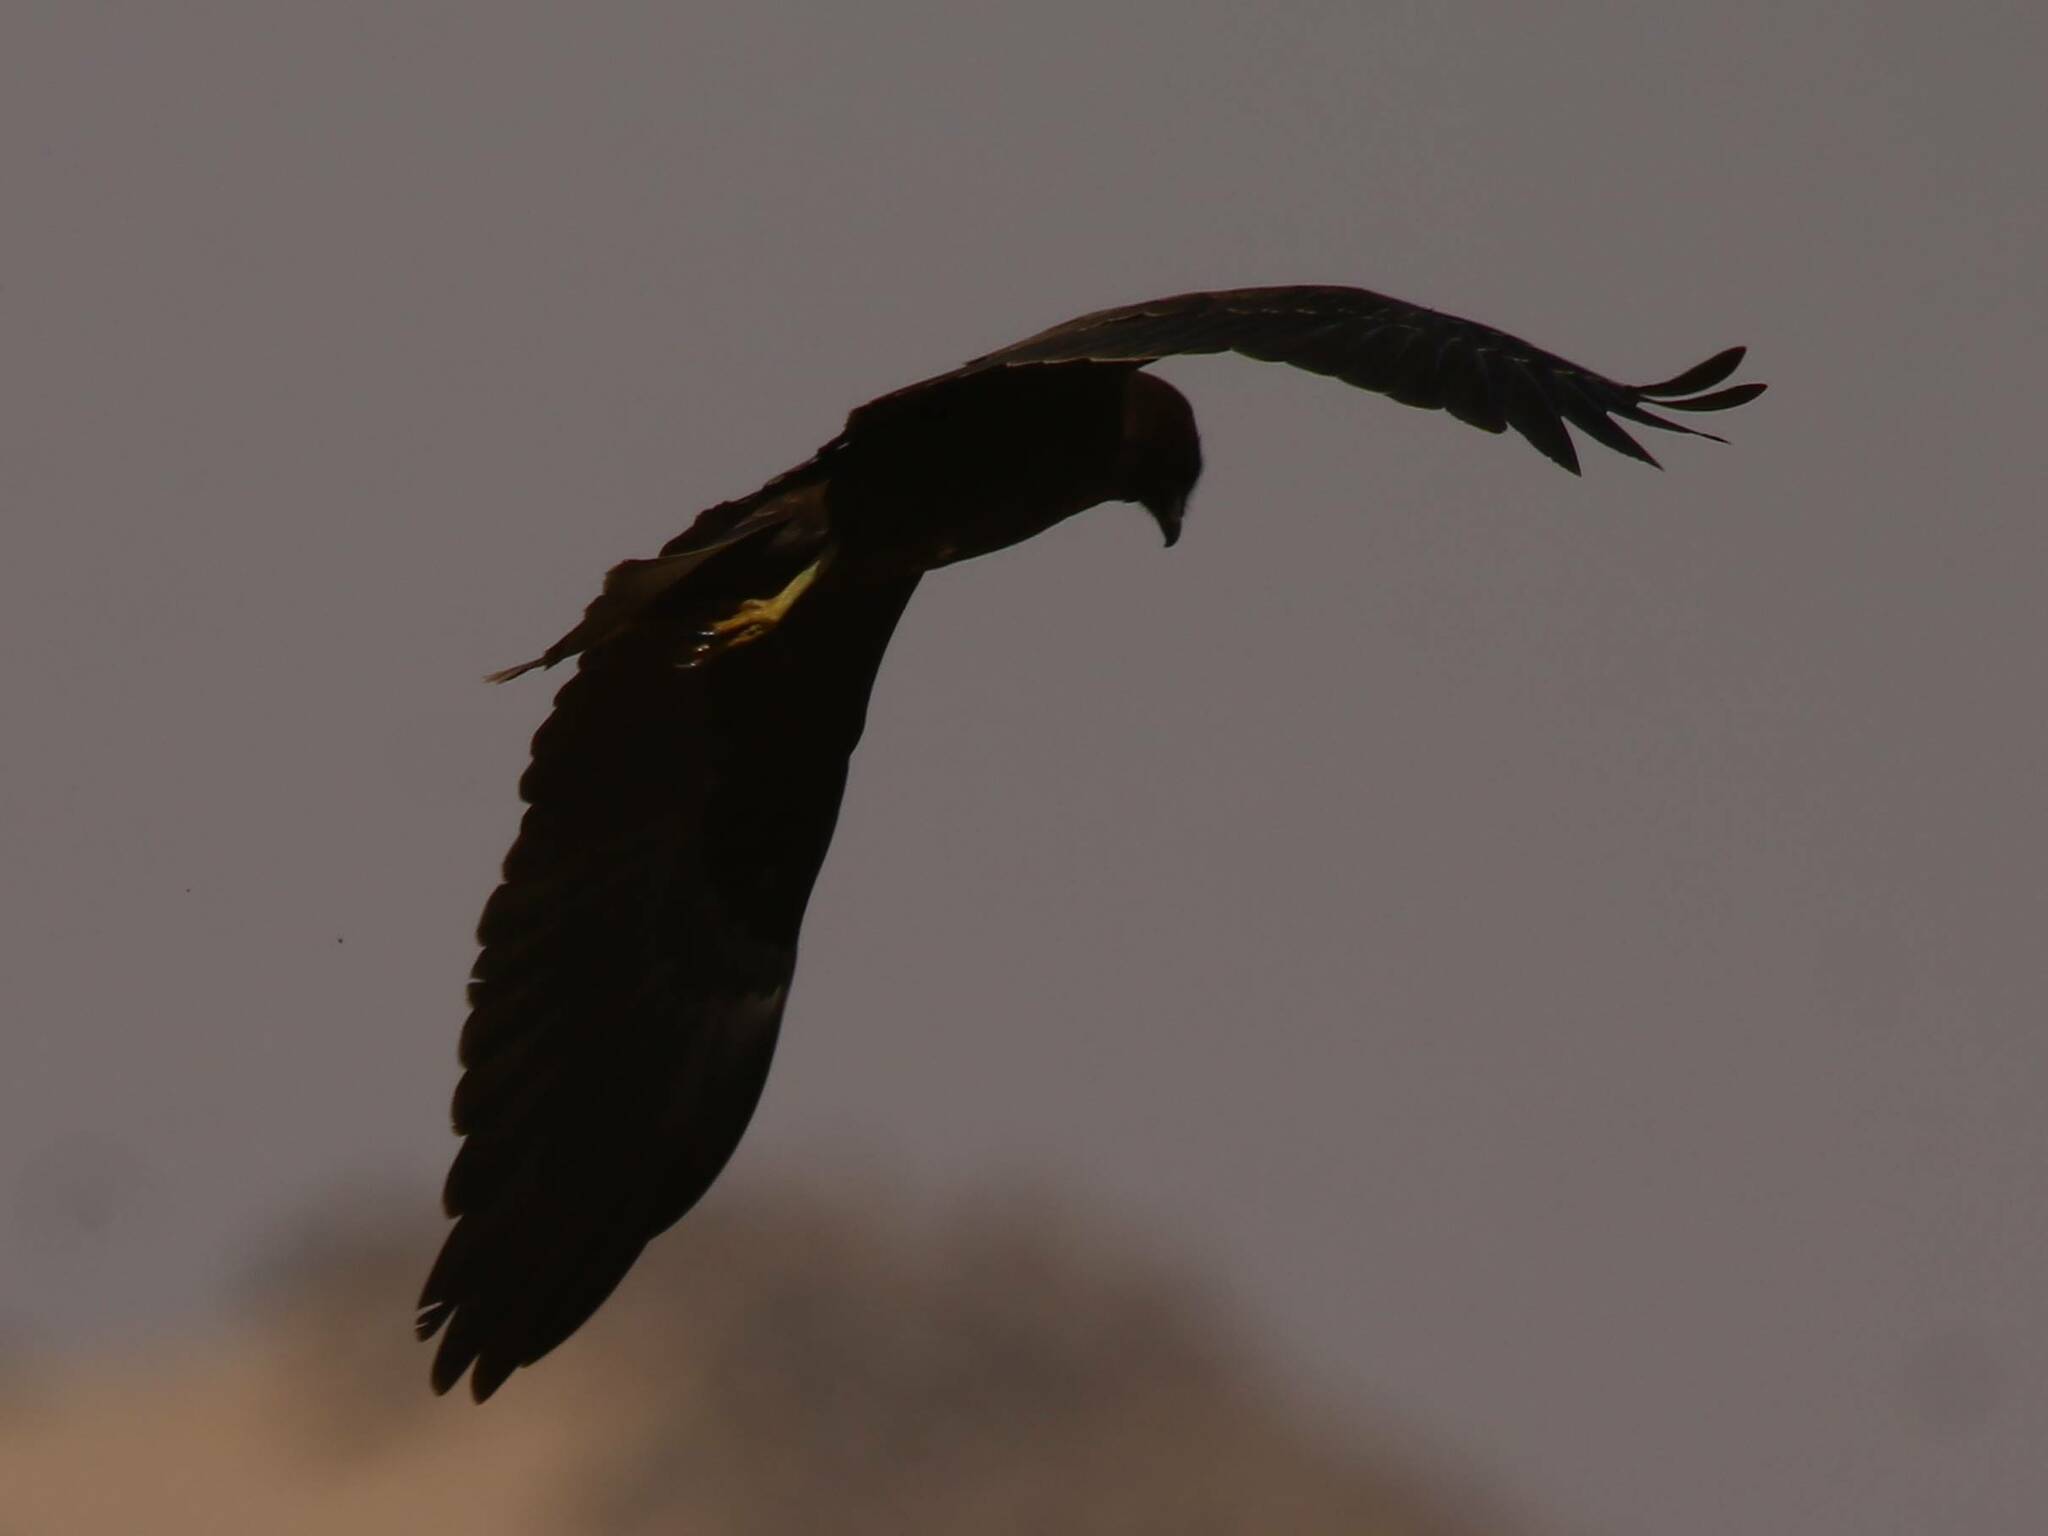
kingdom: Animalia
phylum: Chordata
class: Aves
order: Accipitriformes
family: Accipitridae
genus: Circus
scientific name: Circus aeruginosus
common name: Western marsh harrier
